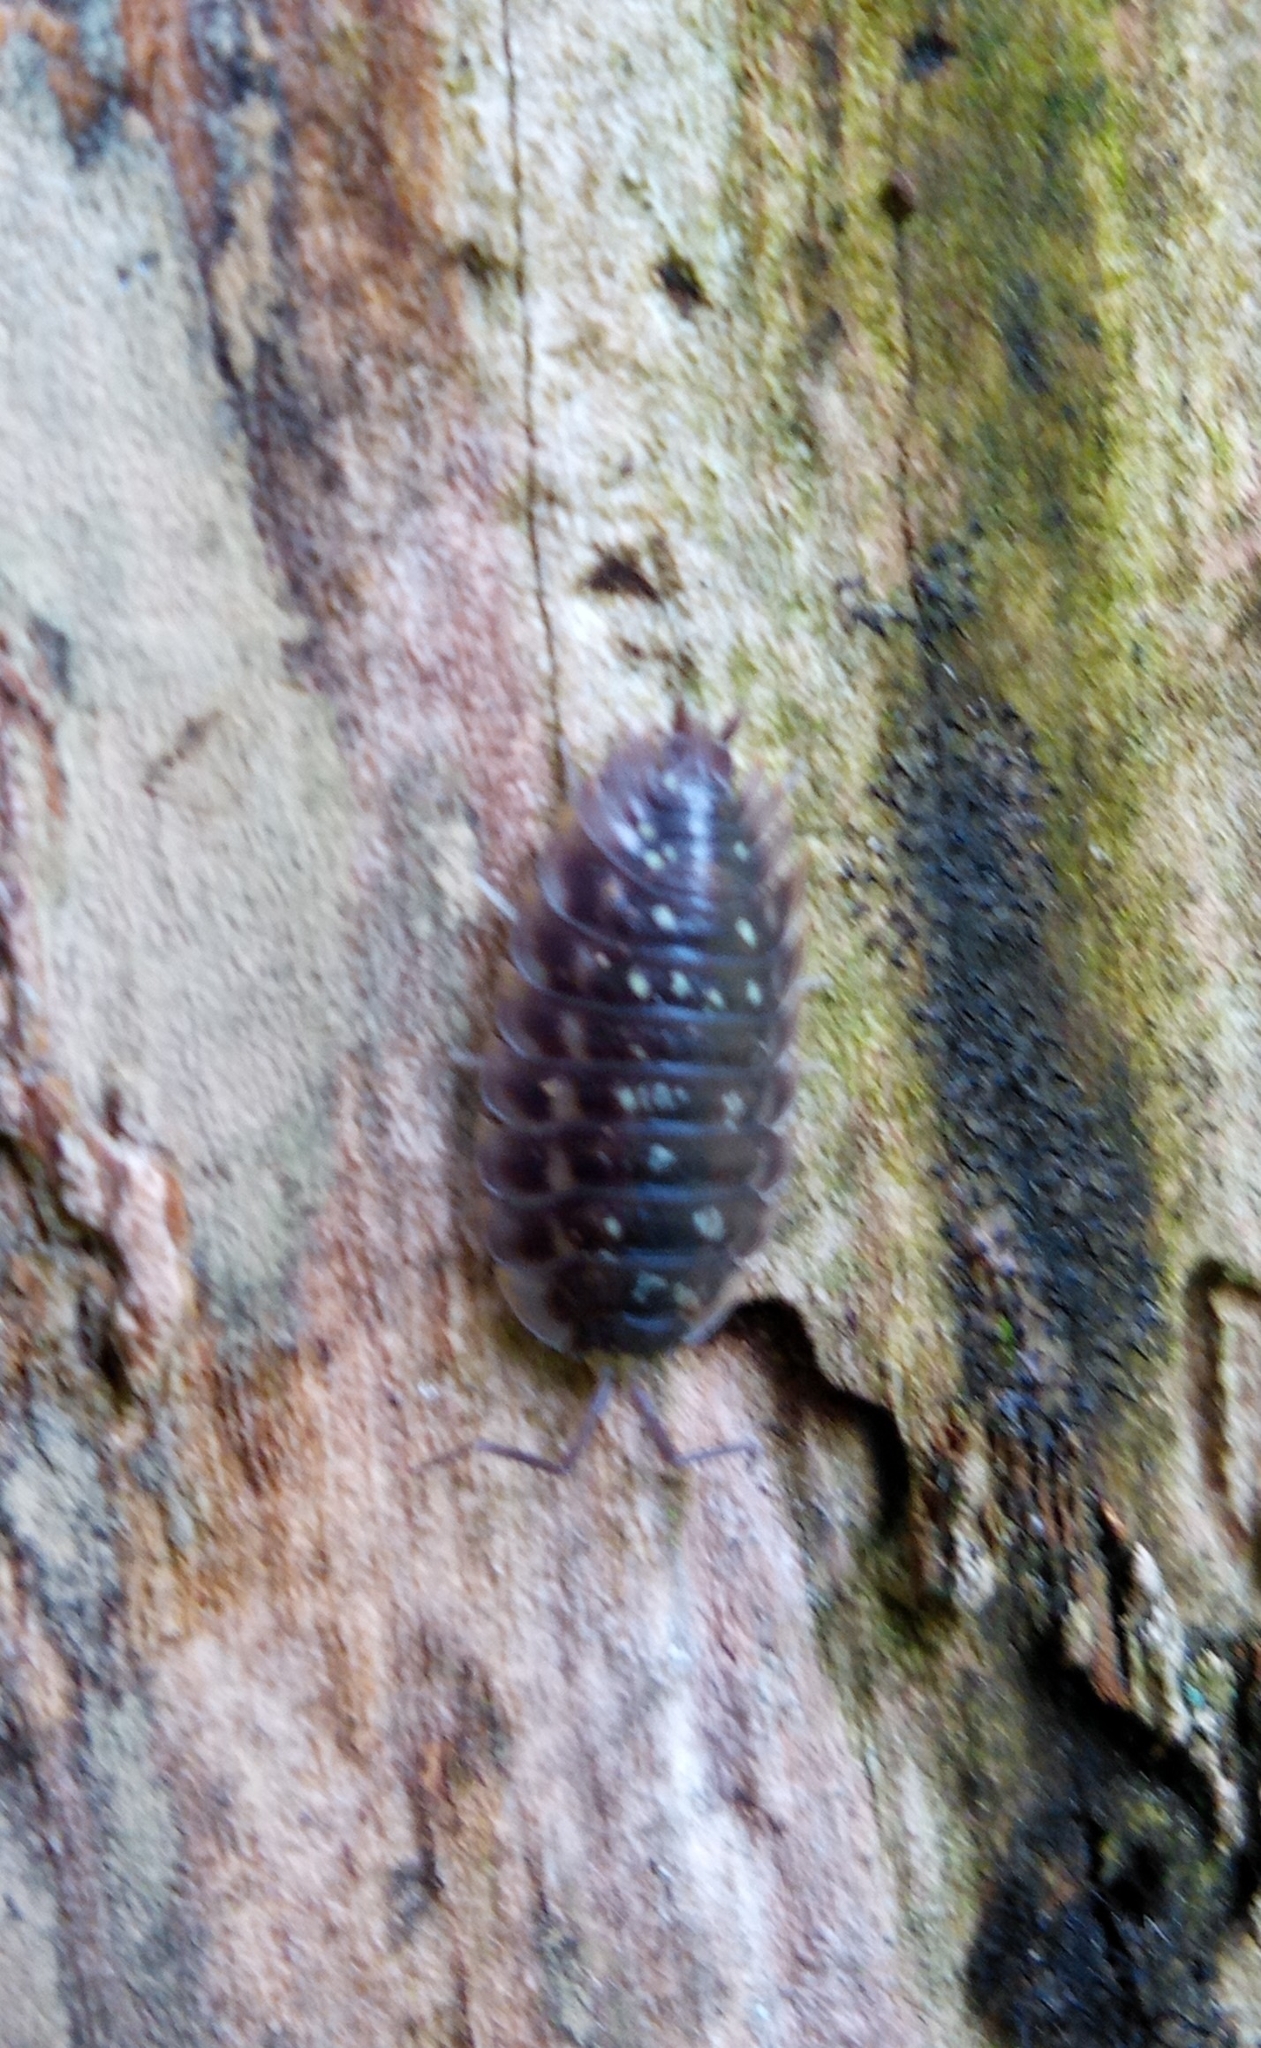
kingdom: Animalia
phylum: Arthropoda
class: Malacostraca
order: Isopoda
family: Oniscidae
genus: Oniscus
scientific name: Oniscus asellus
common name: Common shiny woodlouse
